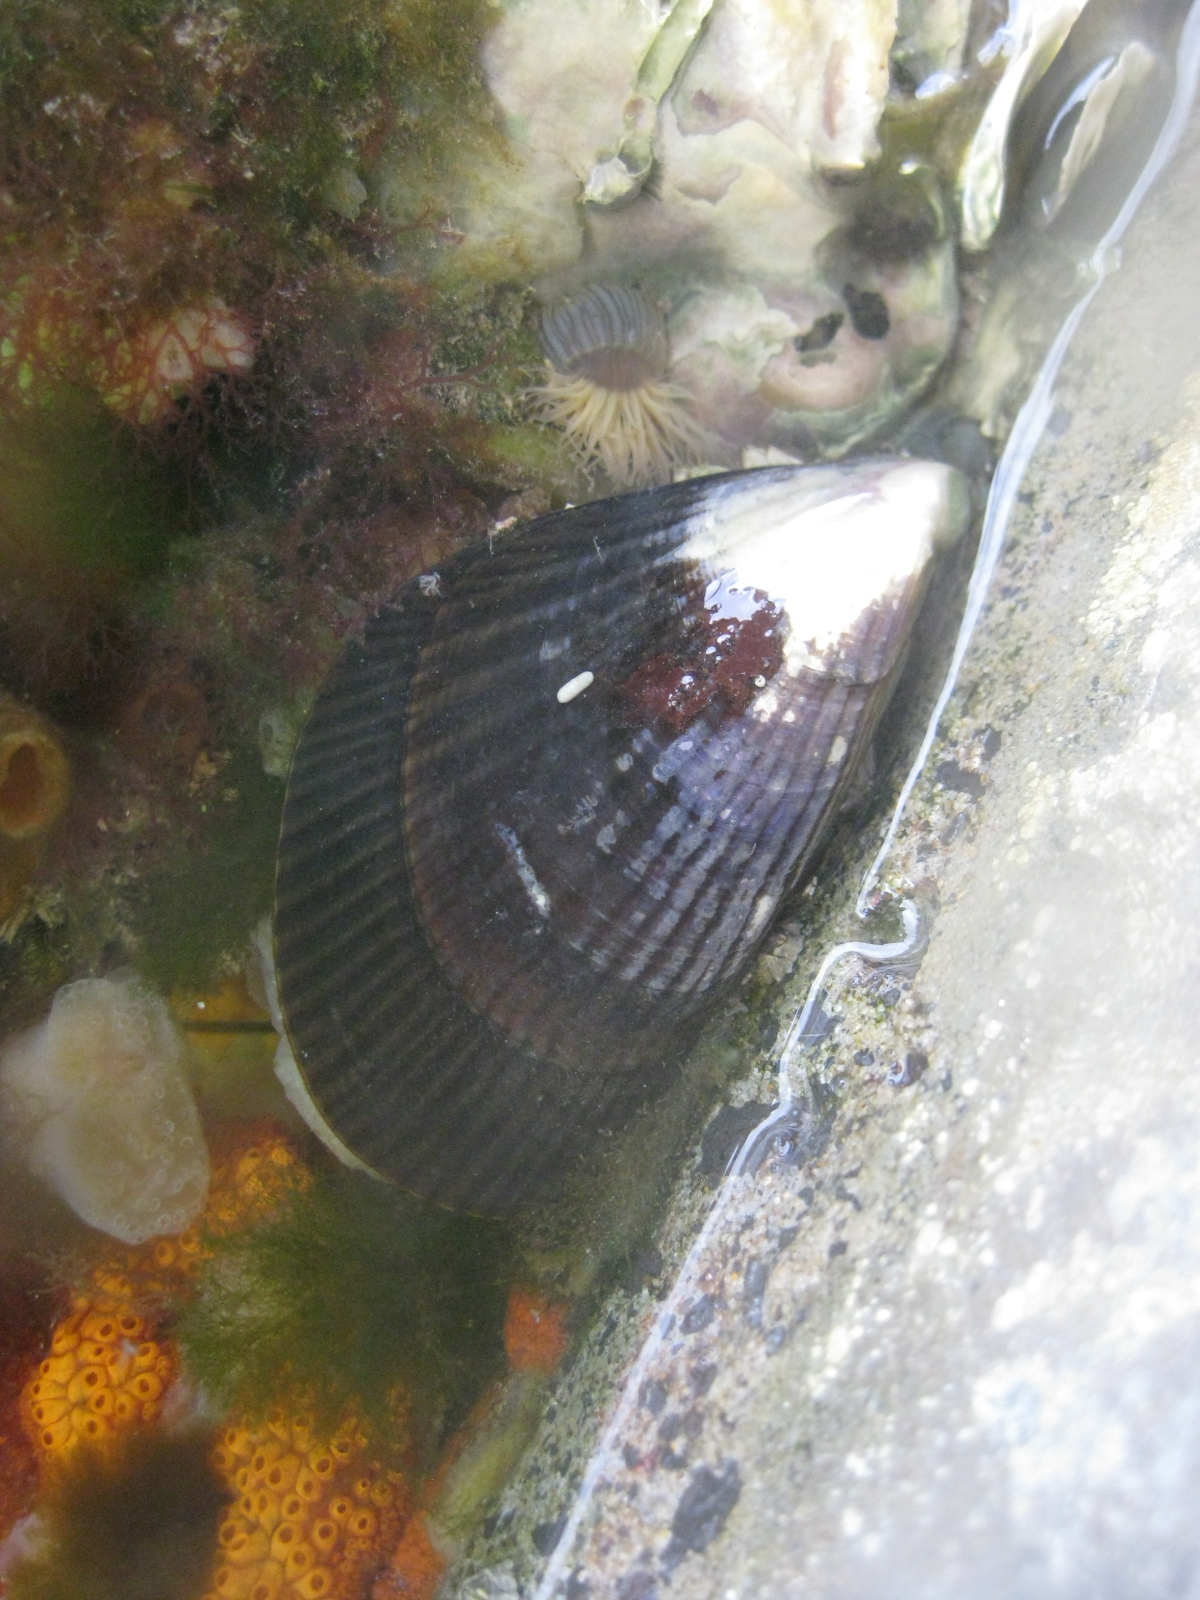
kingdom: Animalia
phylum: Mollusca
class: Bivalvia
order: Mytilida
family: Mytilidae
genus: Aulacomya
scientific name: Aulacomya maoriana
